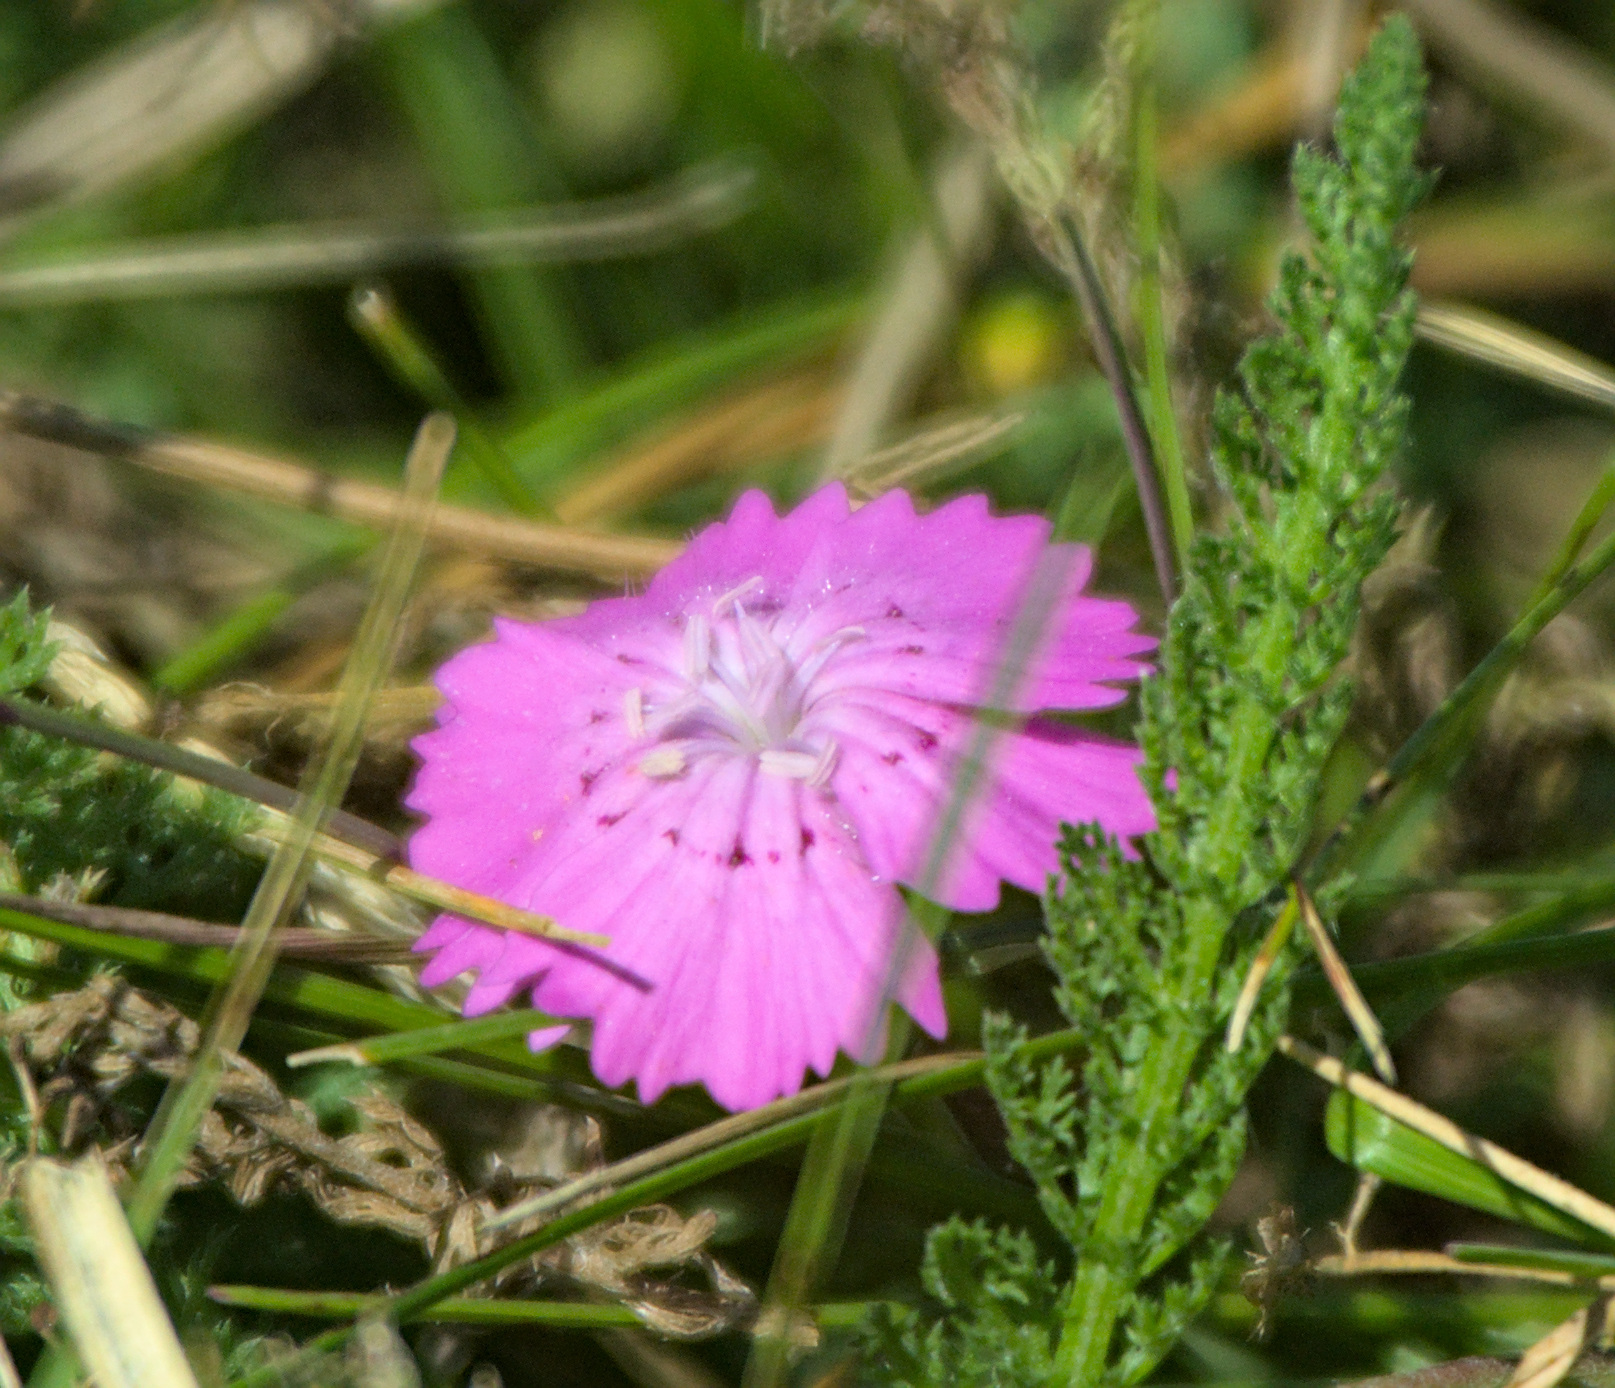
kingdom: Plantae
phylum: Tracheophyta
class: Magnoliopsida
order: Caryophyllales
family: Caryophyllaceae
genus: Dianthus
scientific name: Dianthus chinensis
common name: Rainbow pink
